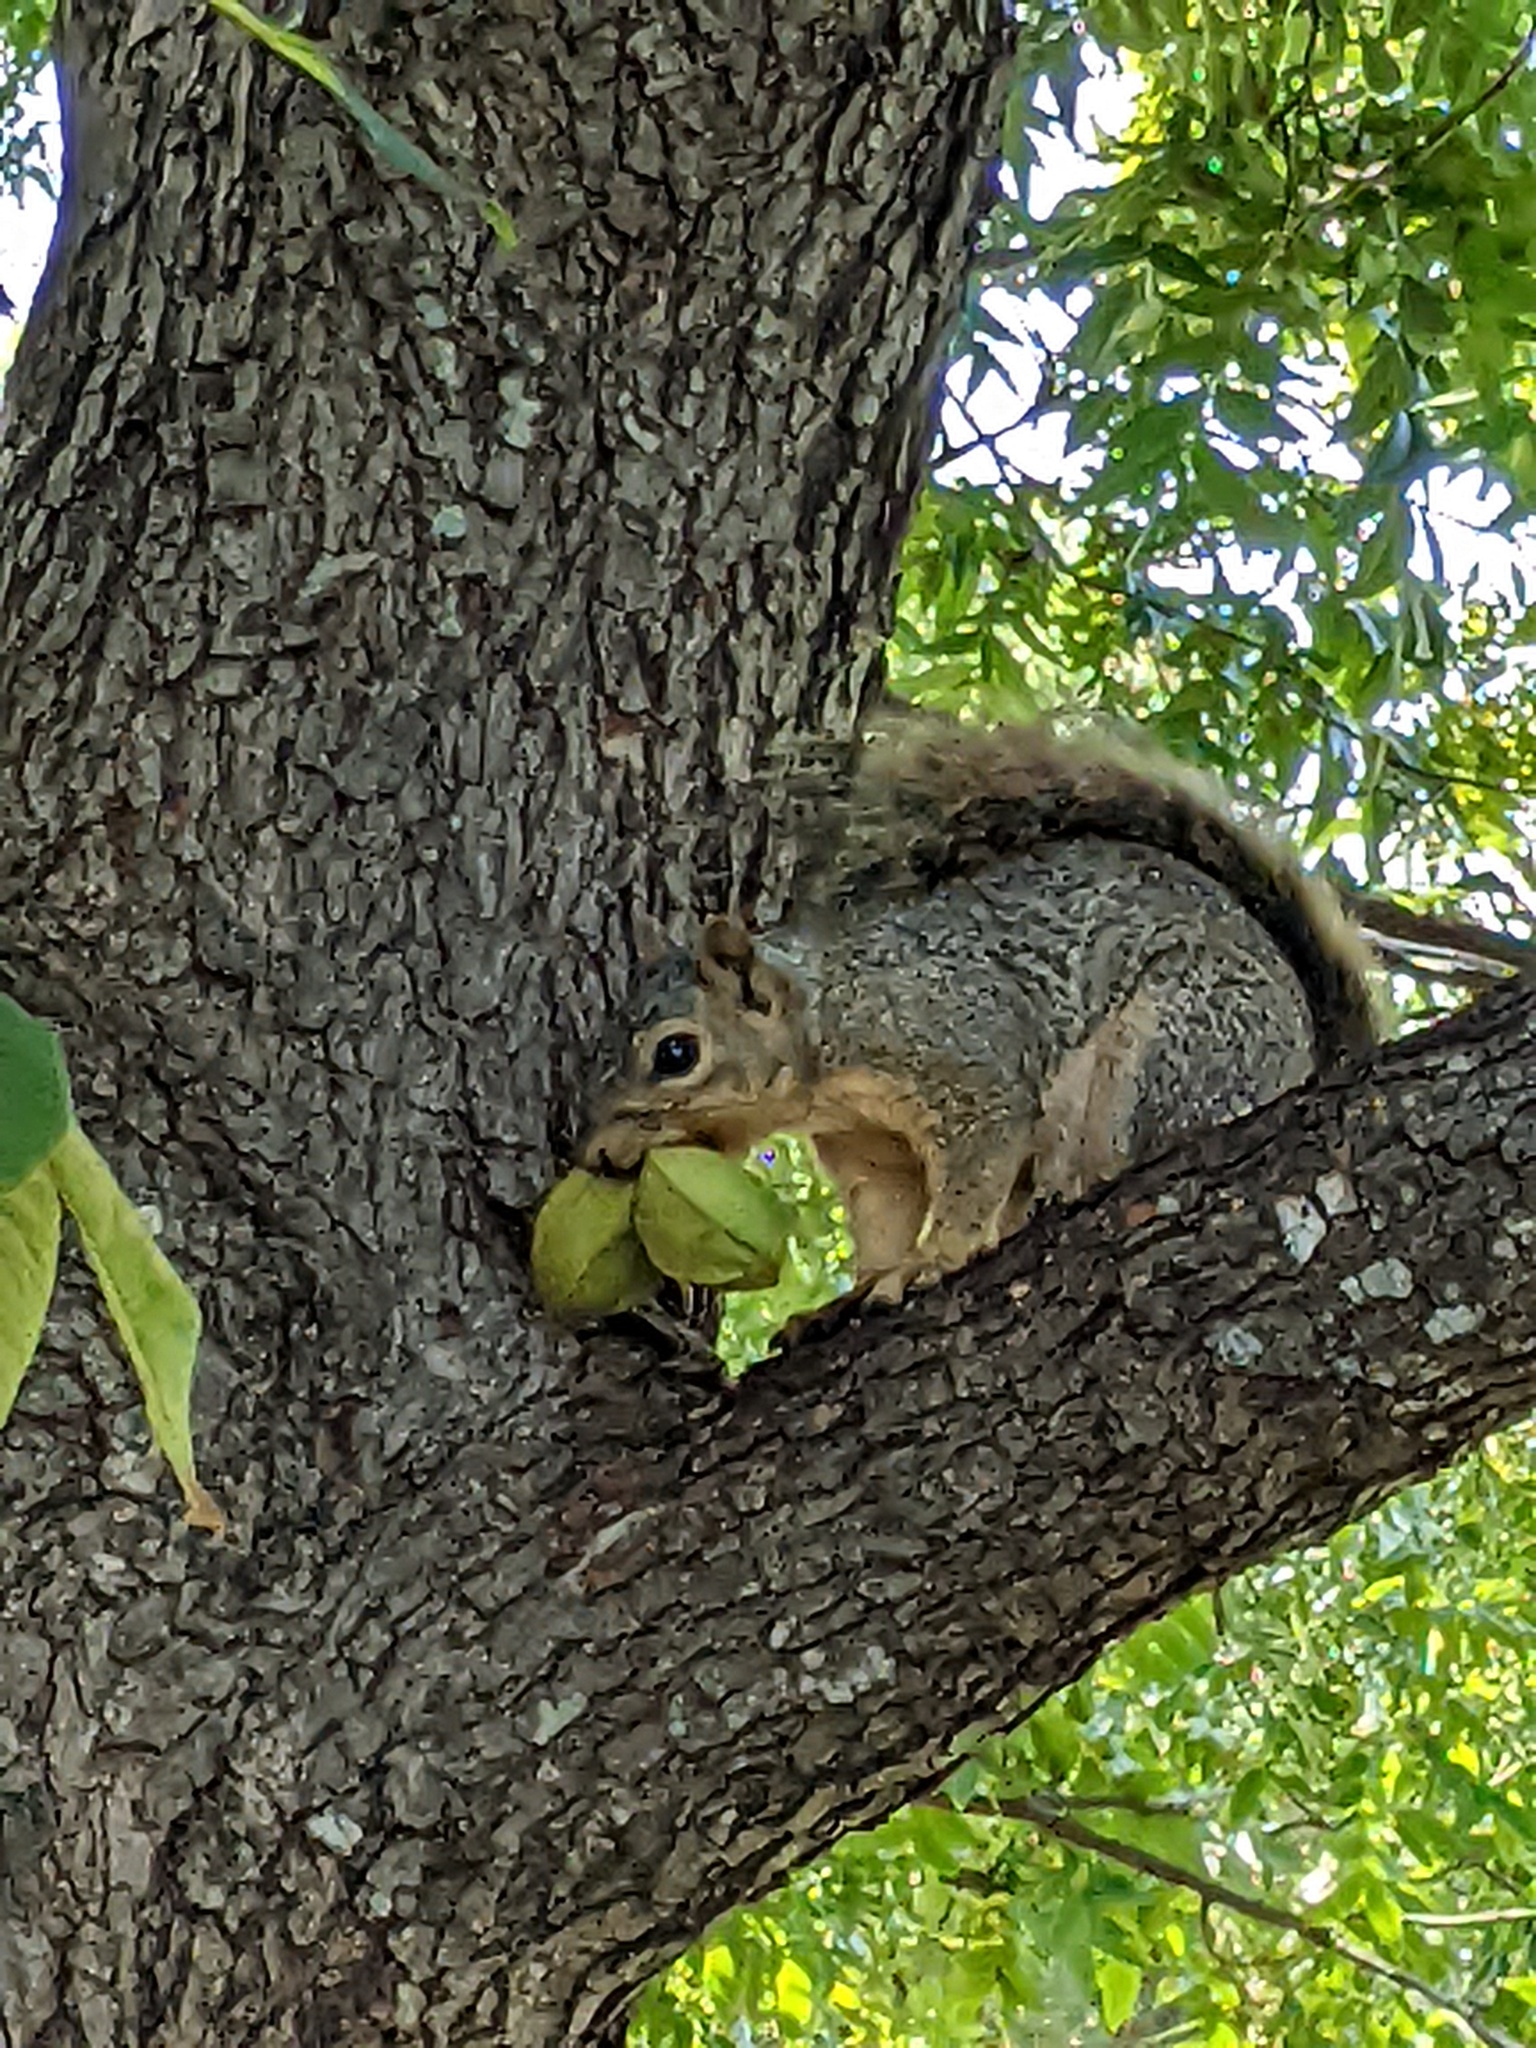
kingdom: Animalia
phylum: Chordata
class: Mammalia
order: Rodentia
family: Sciuridae
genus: Sciurus
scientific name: Sciurus niger
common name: Fox squirrel
